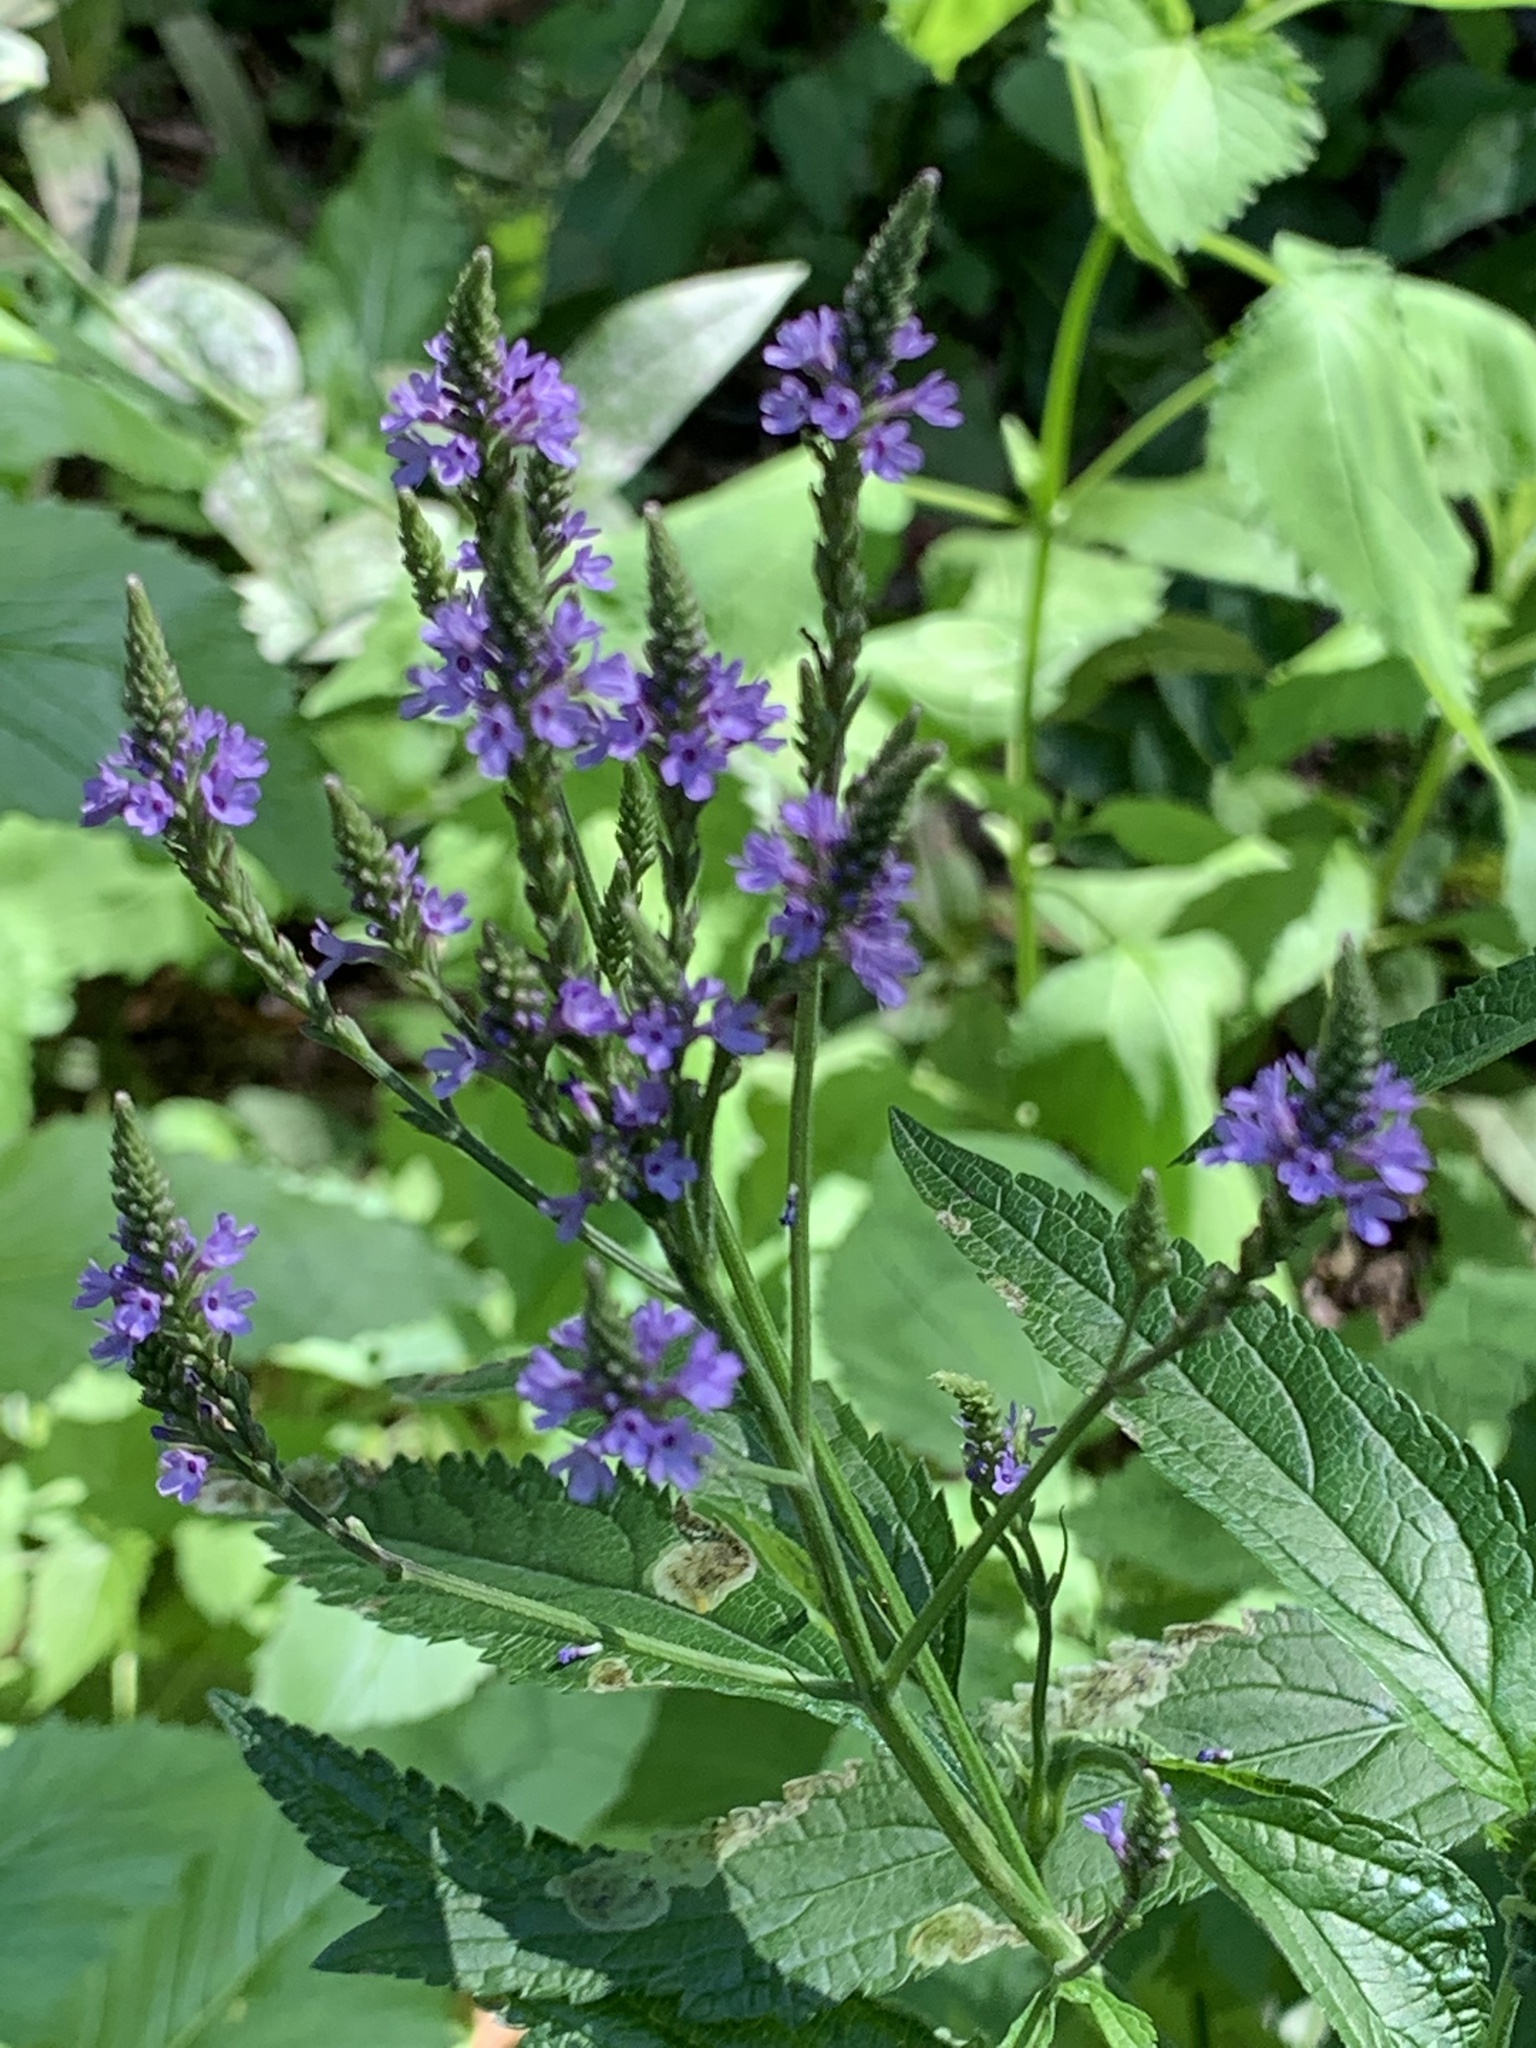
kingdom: Plantae
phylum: Tracheophyta
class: Magnoliopsida
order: Lamiales
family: Verbenaceae
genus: Verbena
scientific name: Verbena hastata
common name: American blue vervain
